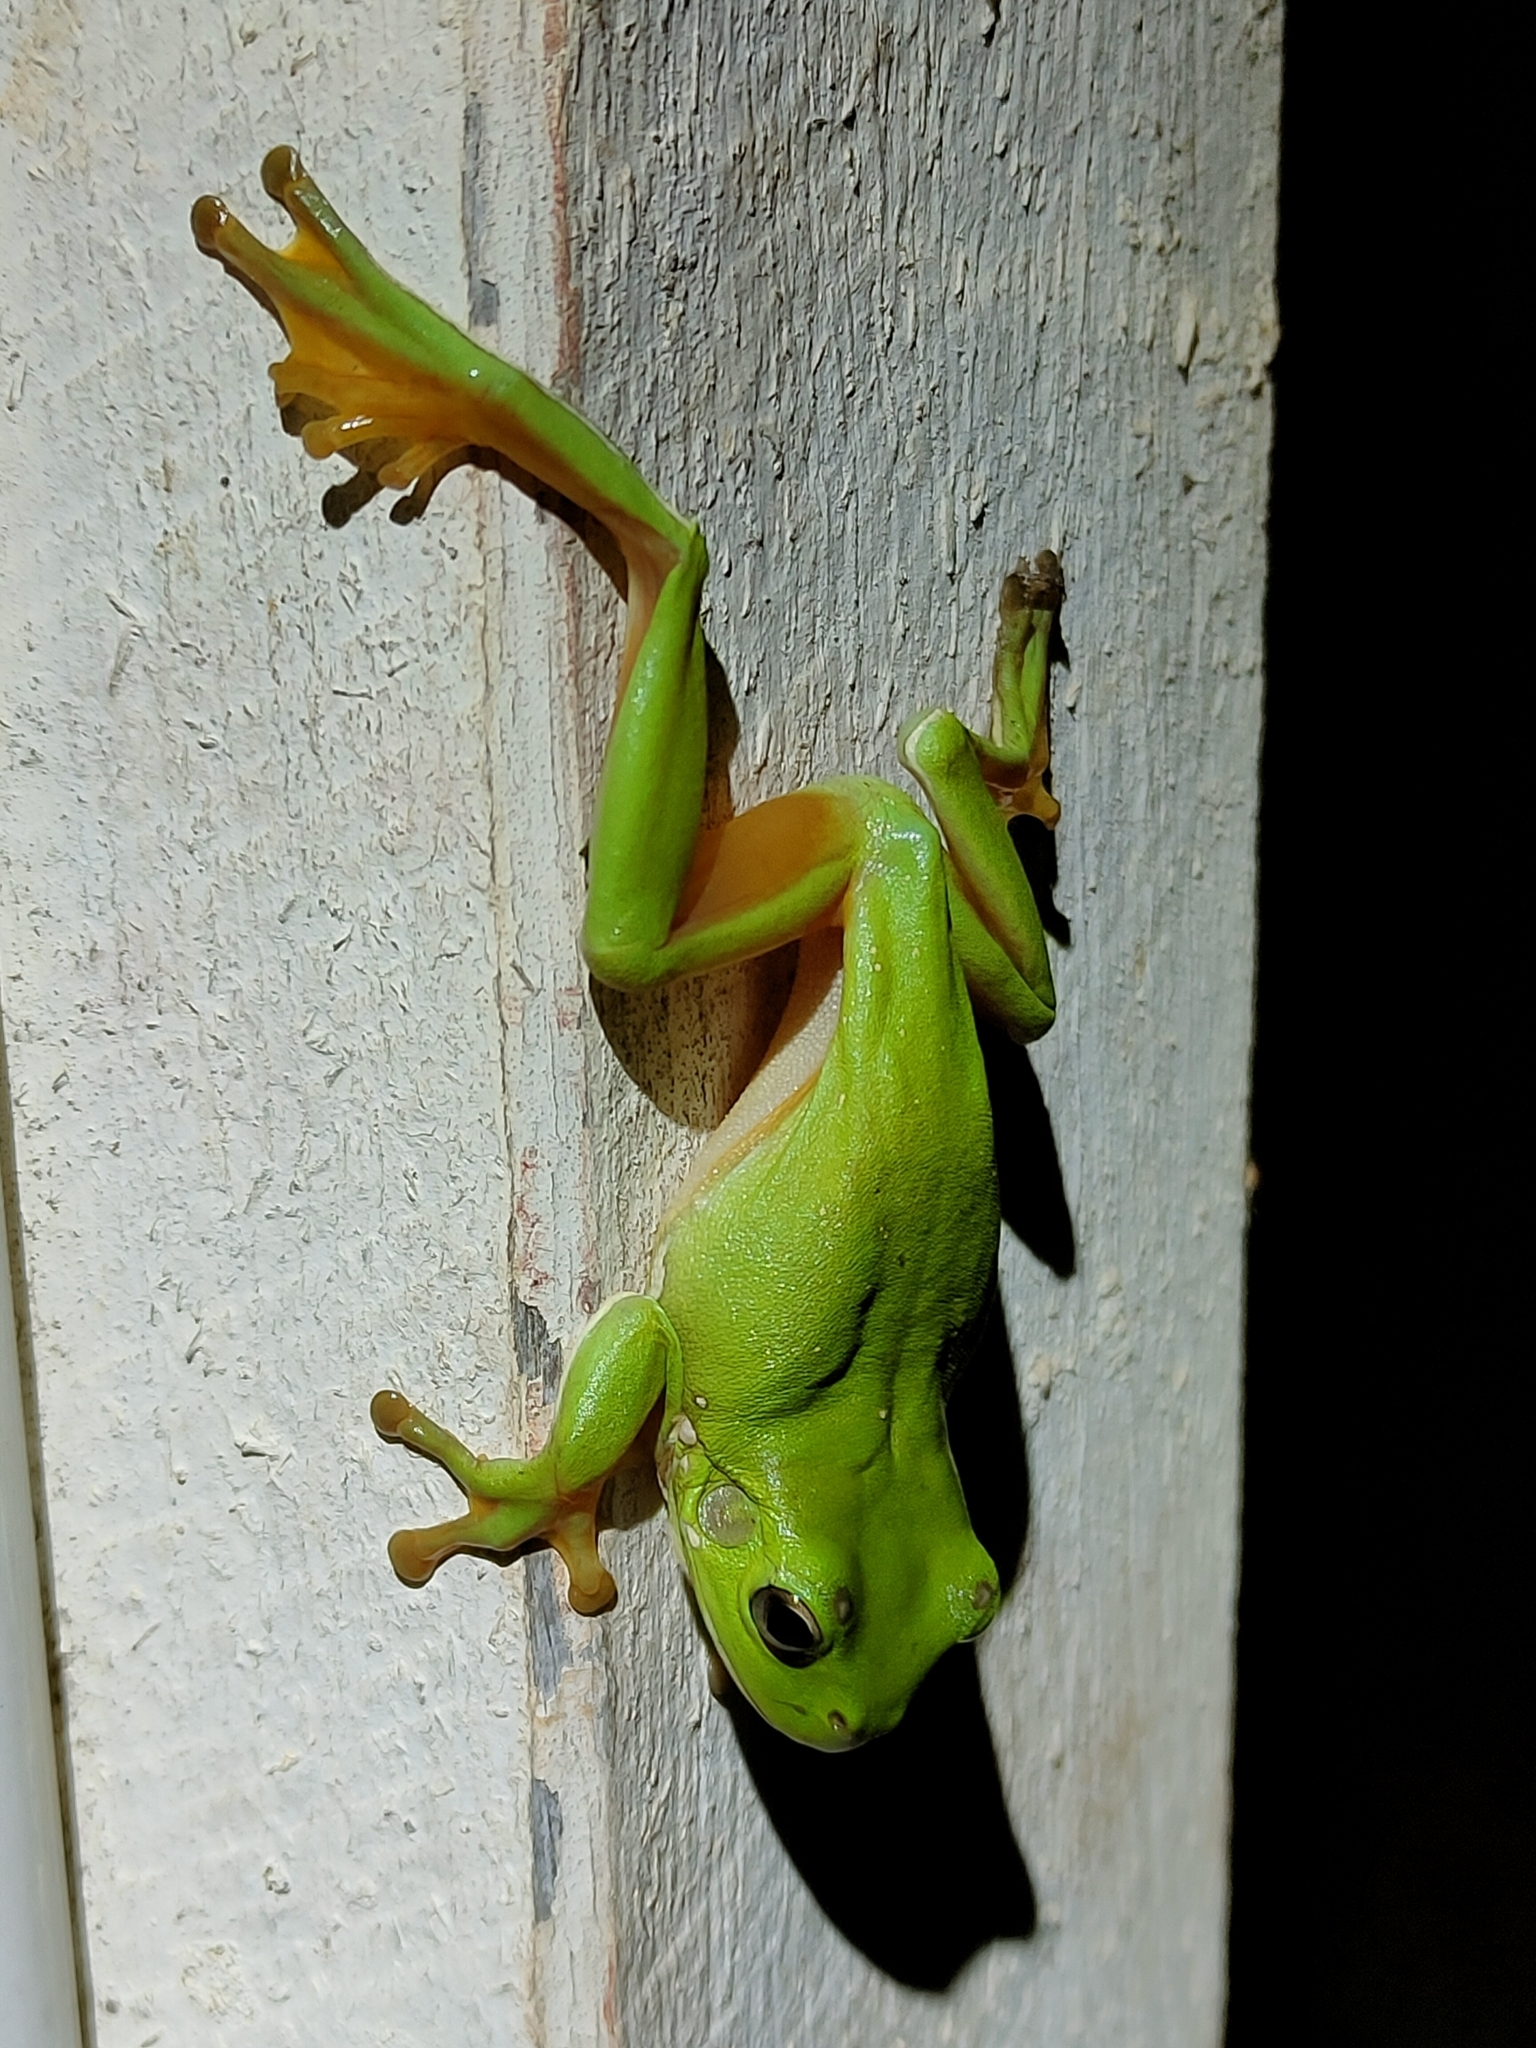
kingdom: Animalia
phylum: Chordata
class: Amphibia
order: Anura
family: Pelodryadidae
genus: Ranoidea
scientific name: Ranoidea caerulea
